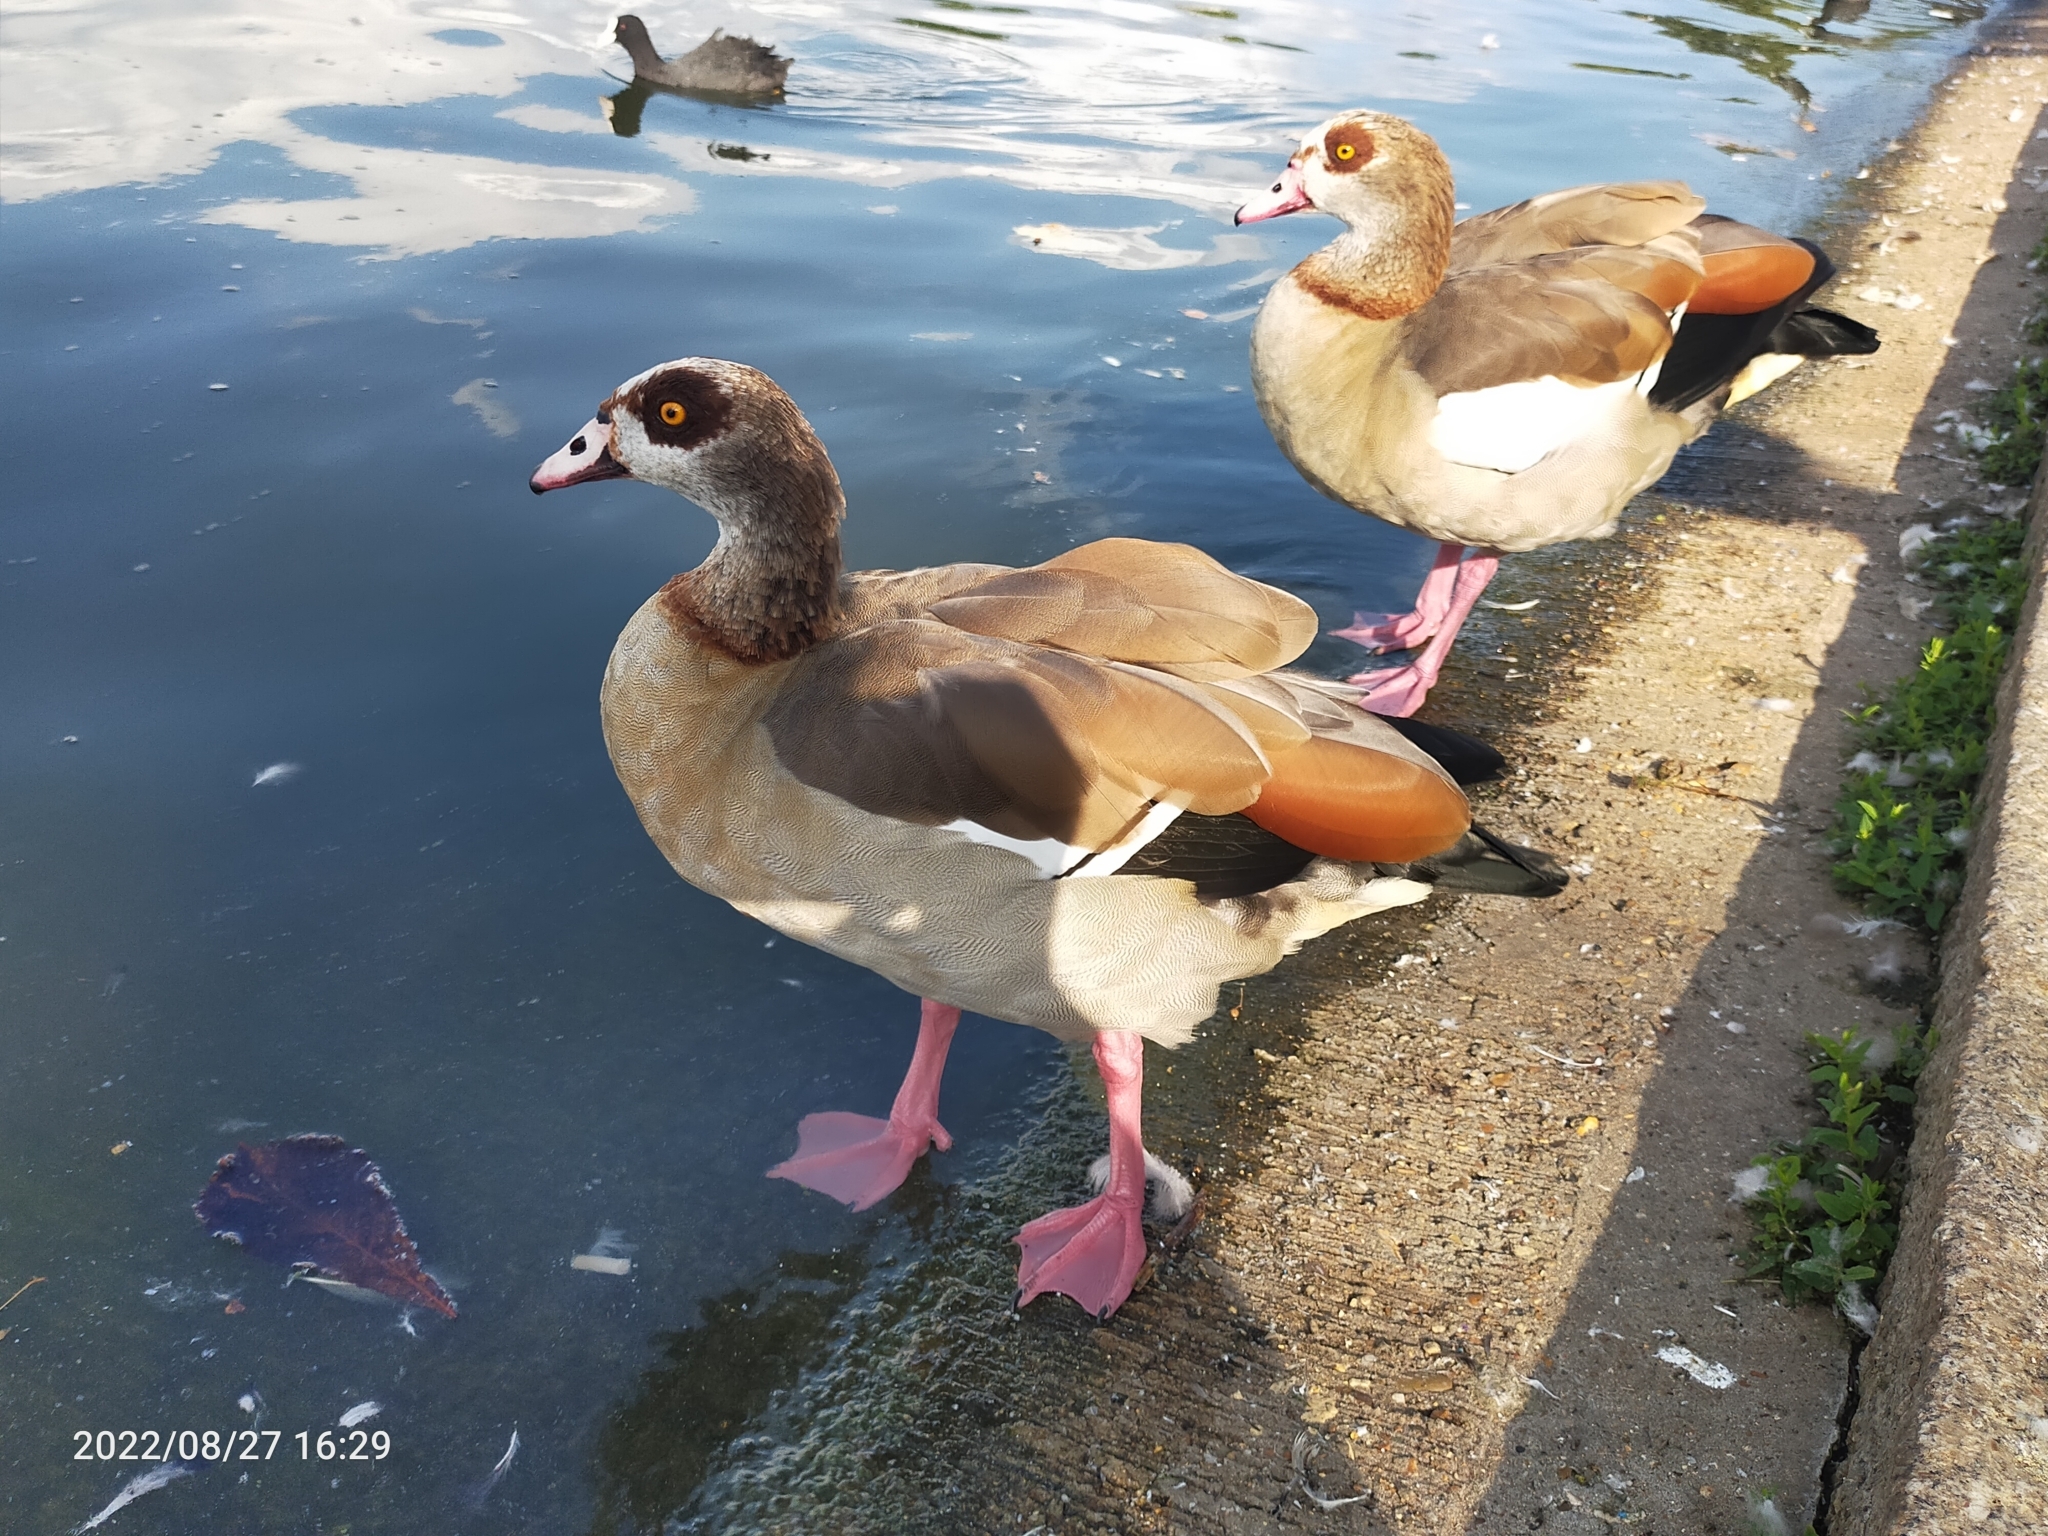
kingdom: Animalia
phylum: Chordata
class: Aves
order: Anseriformes
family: Anatidae
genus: Alopochen
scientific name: Alopochen aegyptiaca
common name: Egyptian goose
